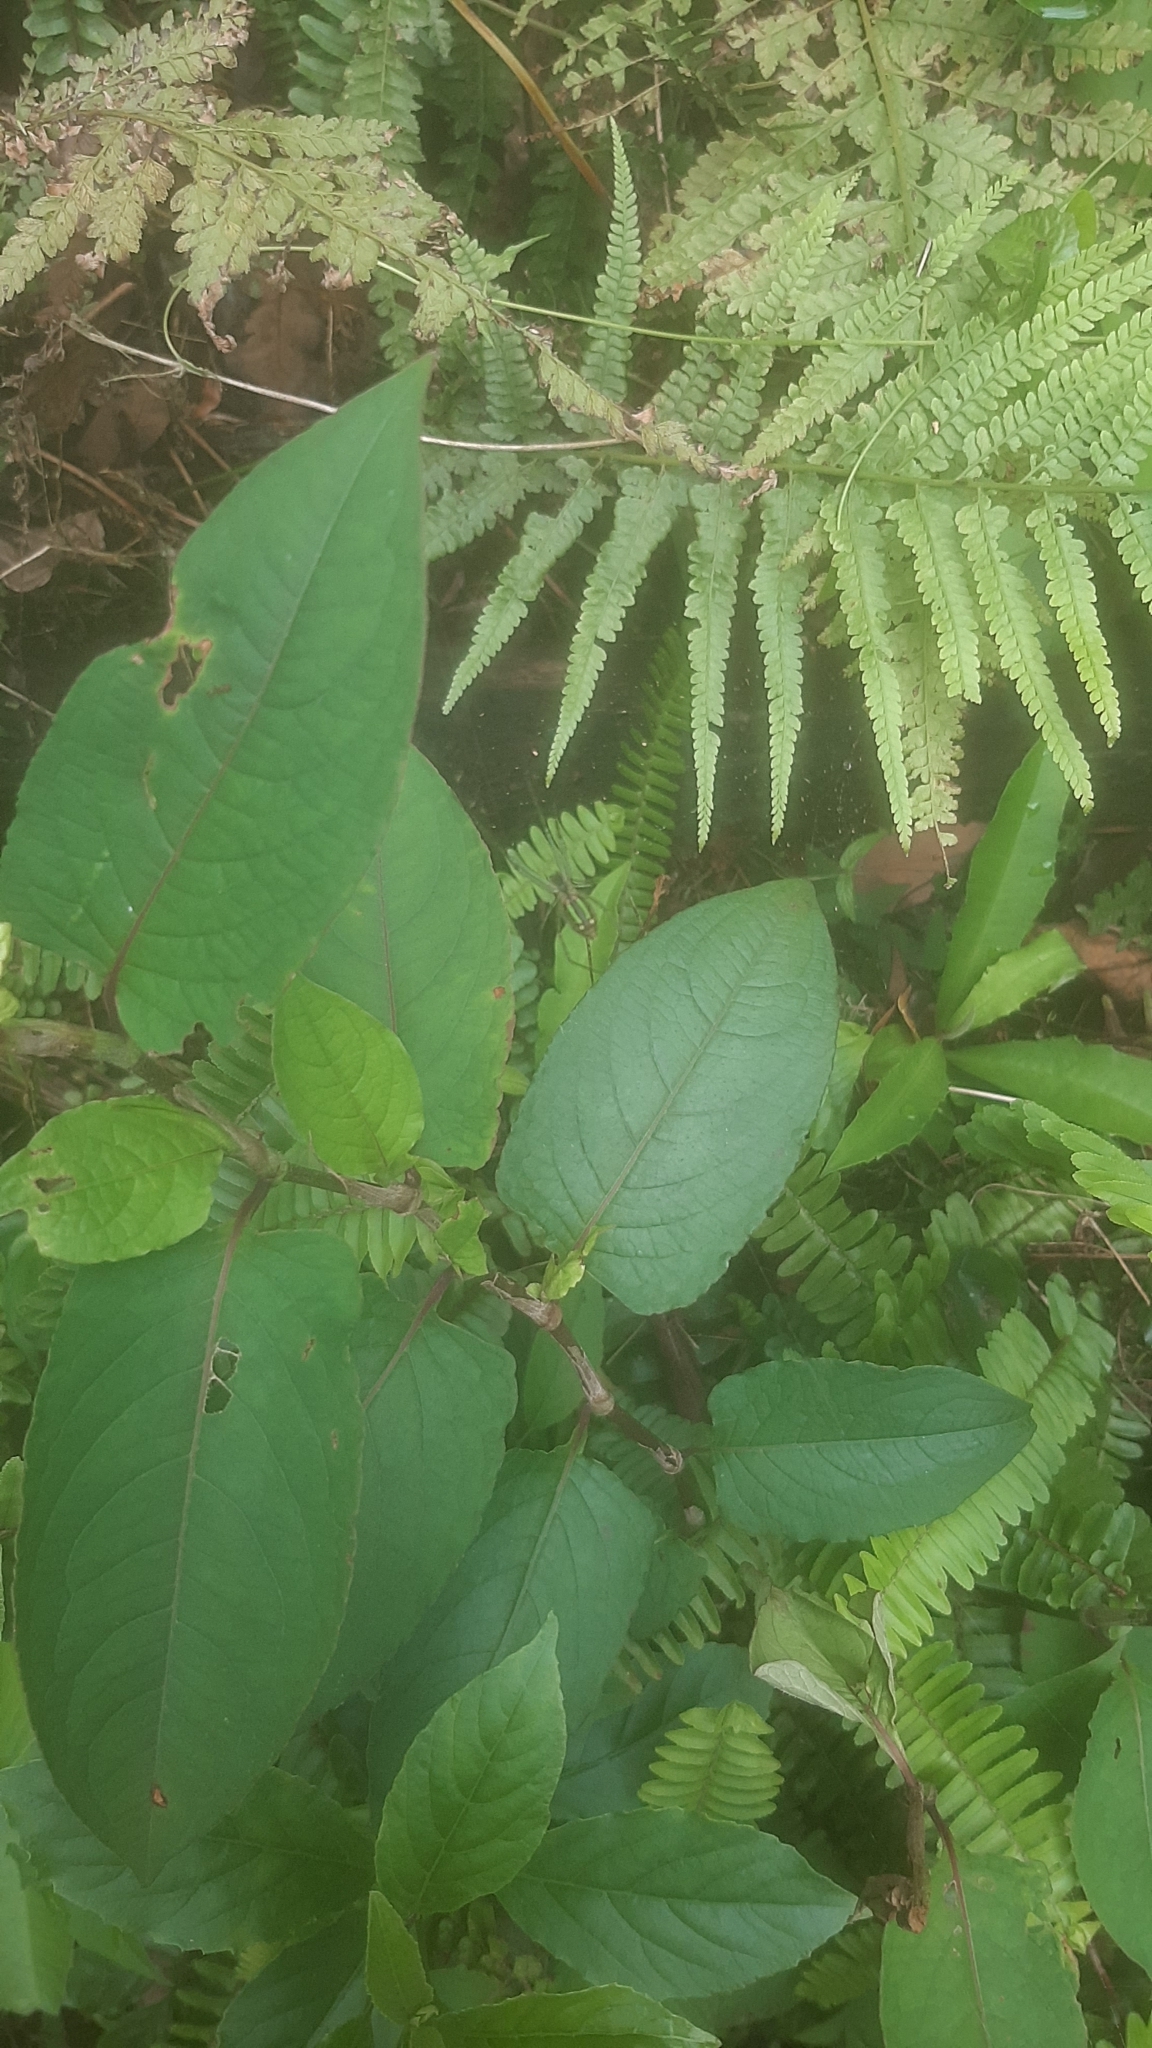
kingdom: Plantae
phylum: Tracheophyta
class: Magnoliopsida
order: Caryophyllales
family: Polygonaceae
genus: Persicaria
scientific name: Persicaria chinensis
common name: Chinese knotweed
